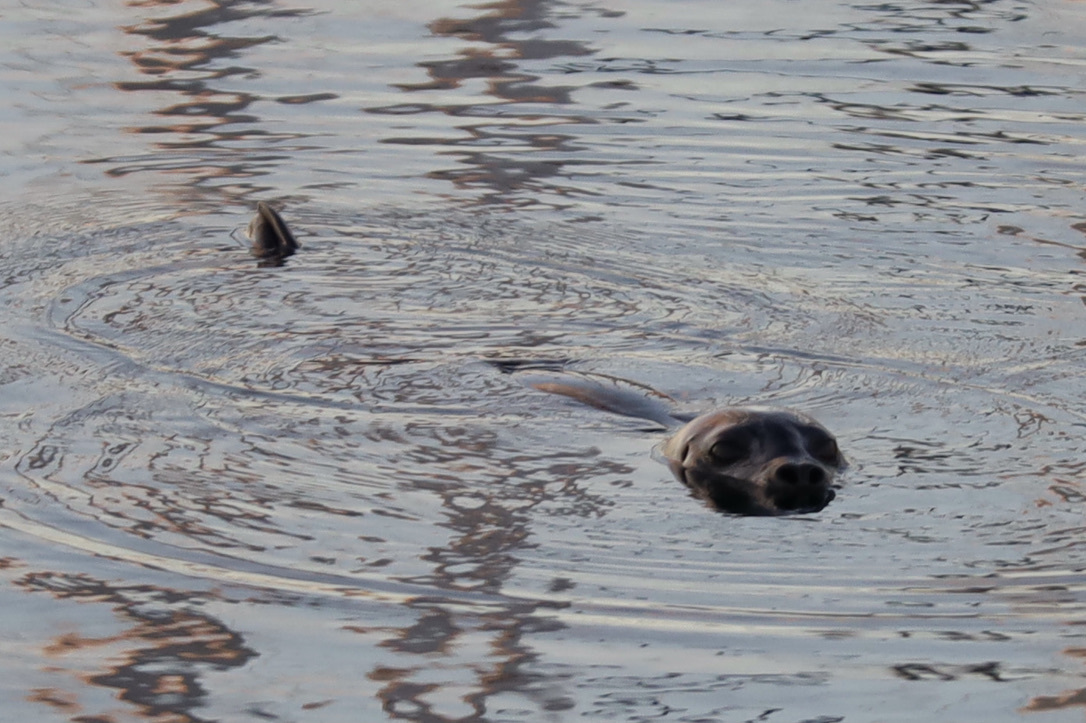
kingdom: Animalia
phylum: Chordata
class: Mammalia
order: Carnivora
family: Phocidae
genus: Phoca
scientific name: Phoca vitulina
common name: Harbor seal
